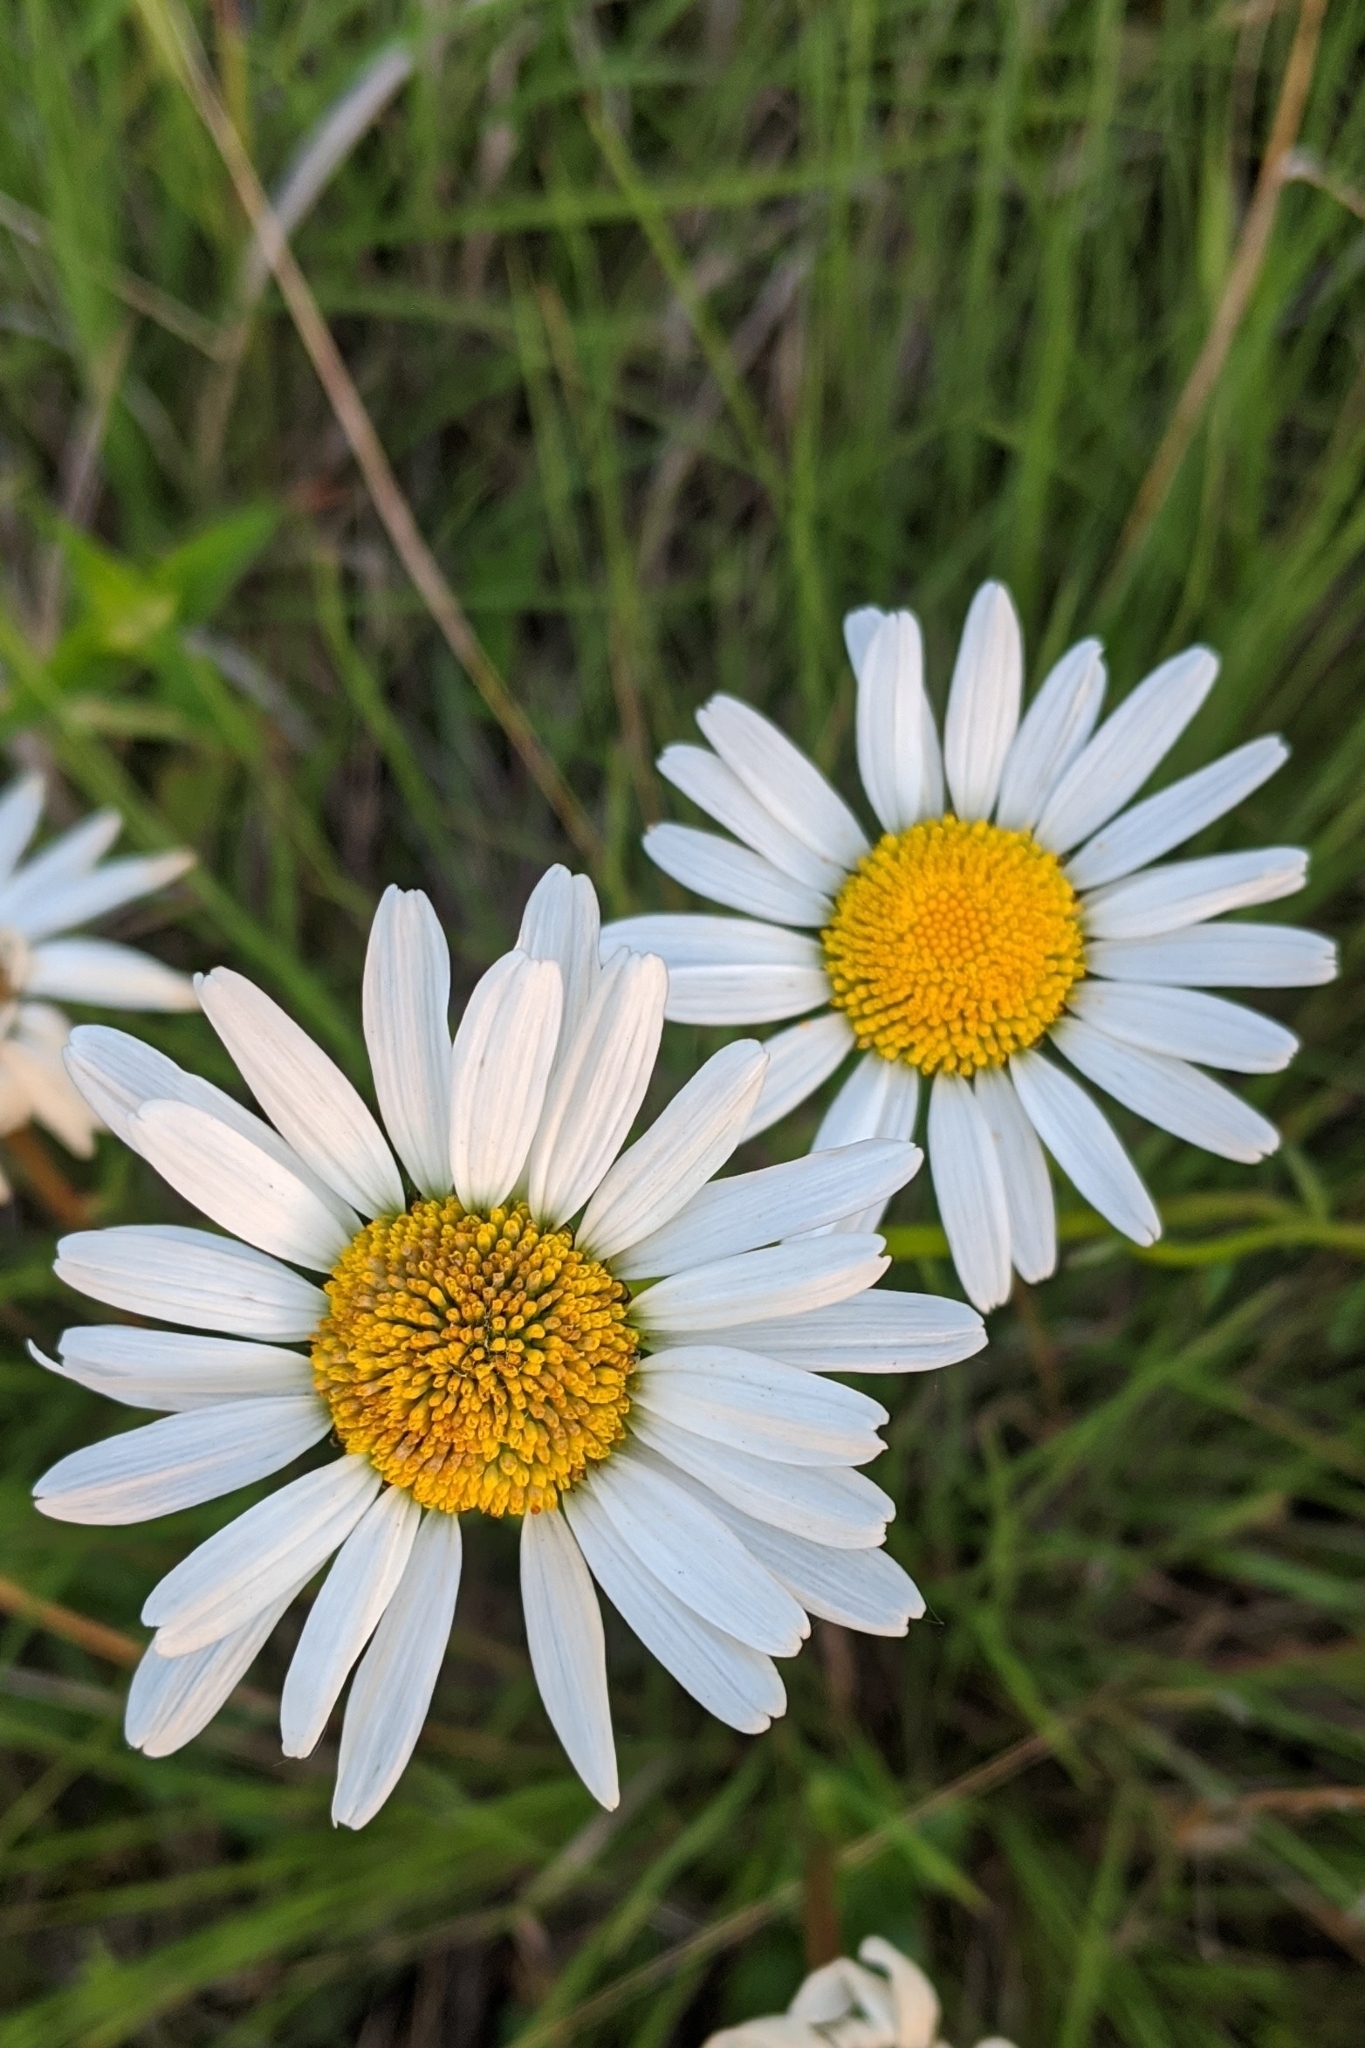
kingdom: Plantae
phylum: Tracheophyta
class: Magnoliopsida
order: Asterales
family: Asteraceae
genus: Leucanthemum
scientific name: Leucanthemum vulgare
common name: Oxeye daisy
